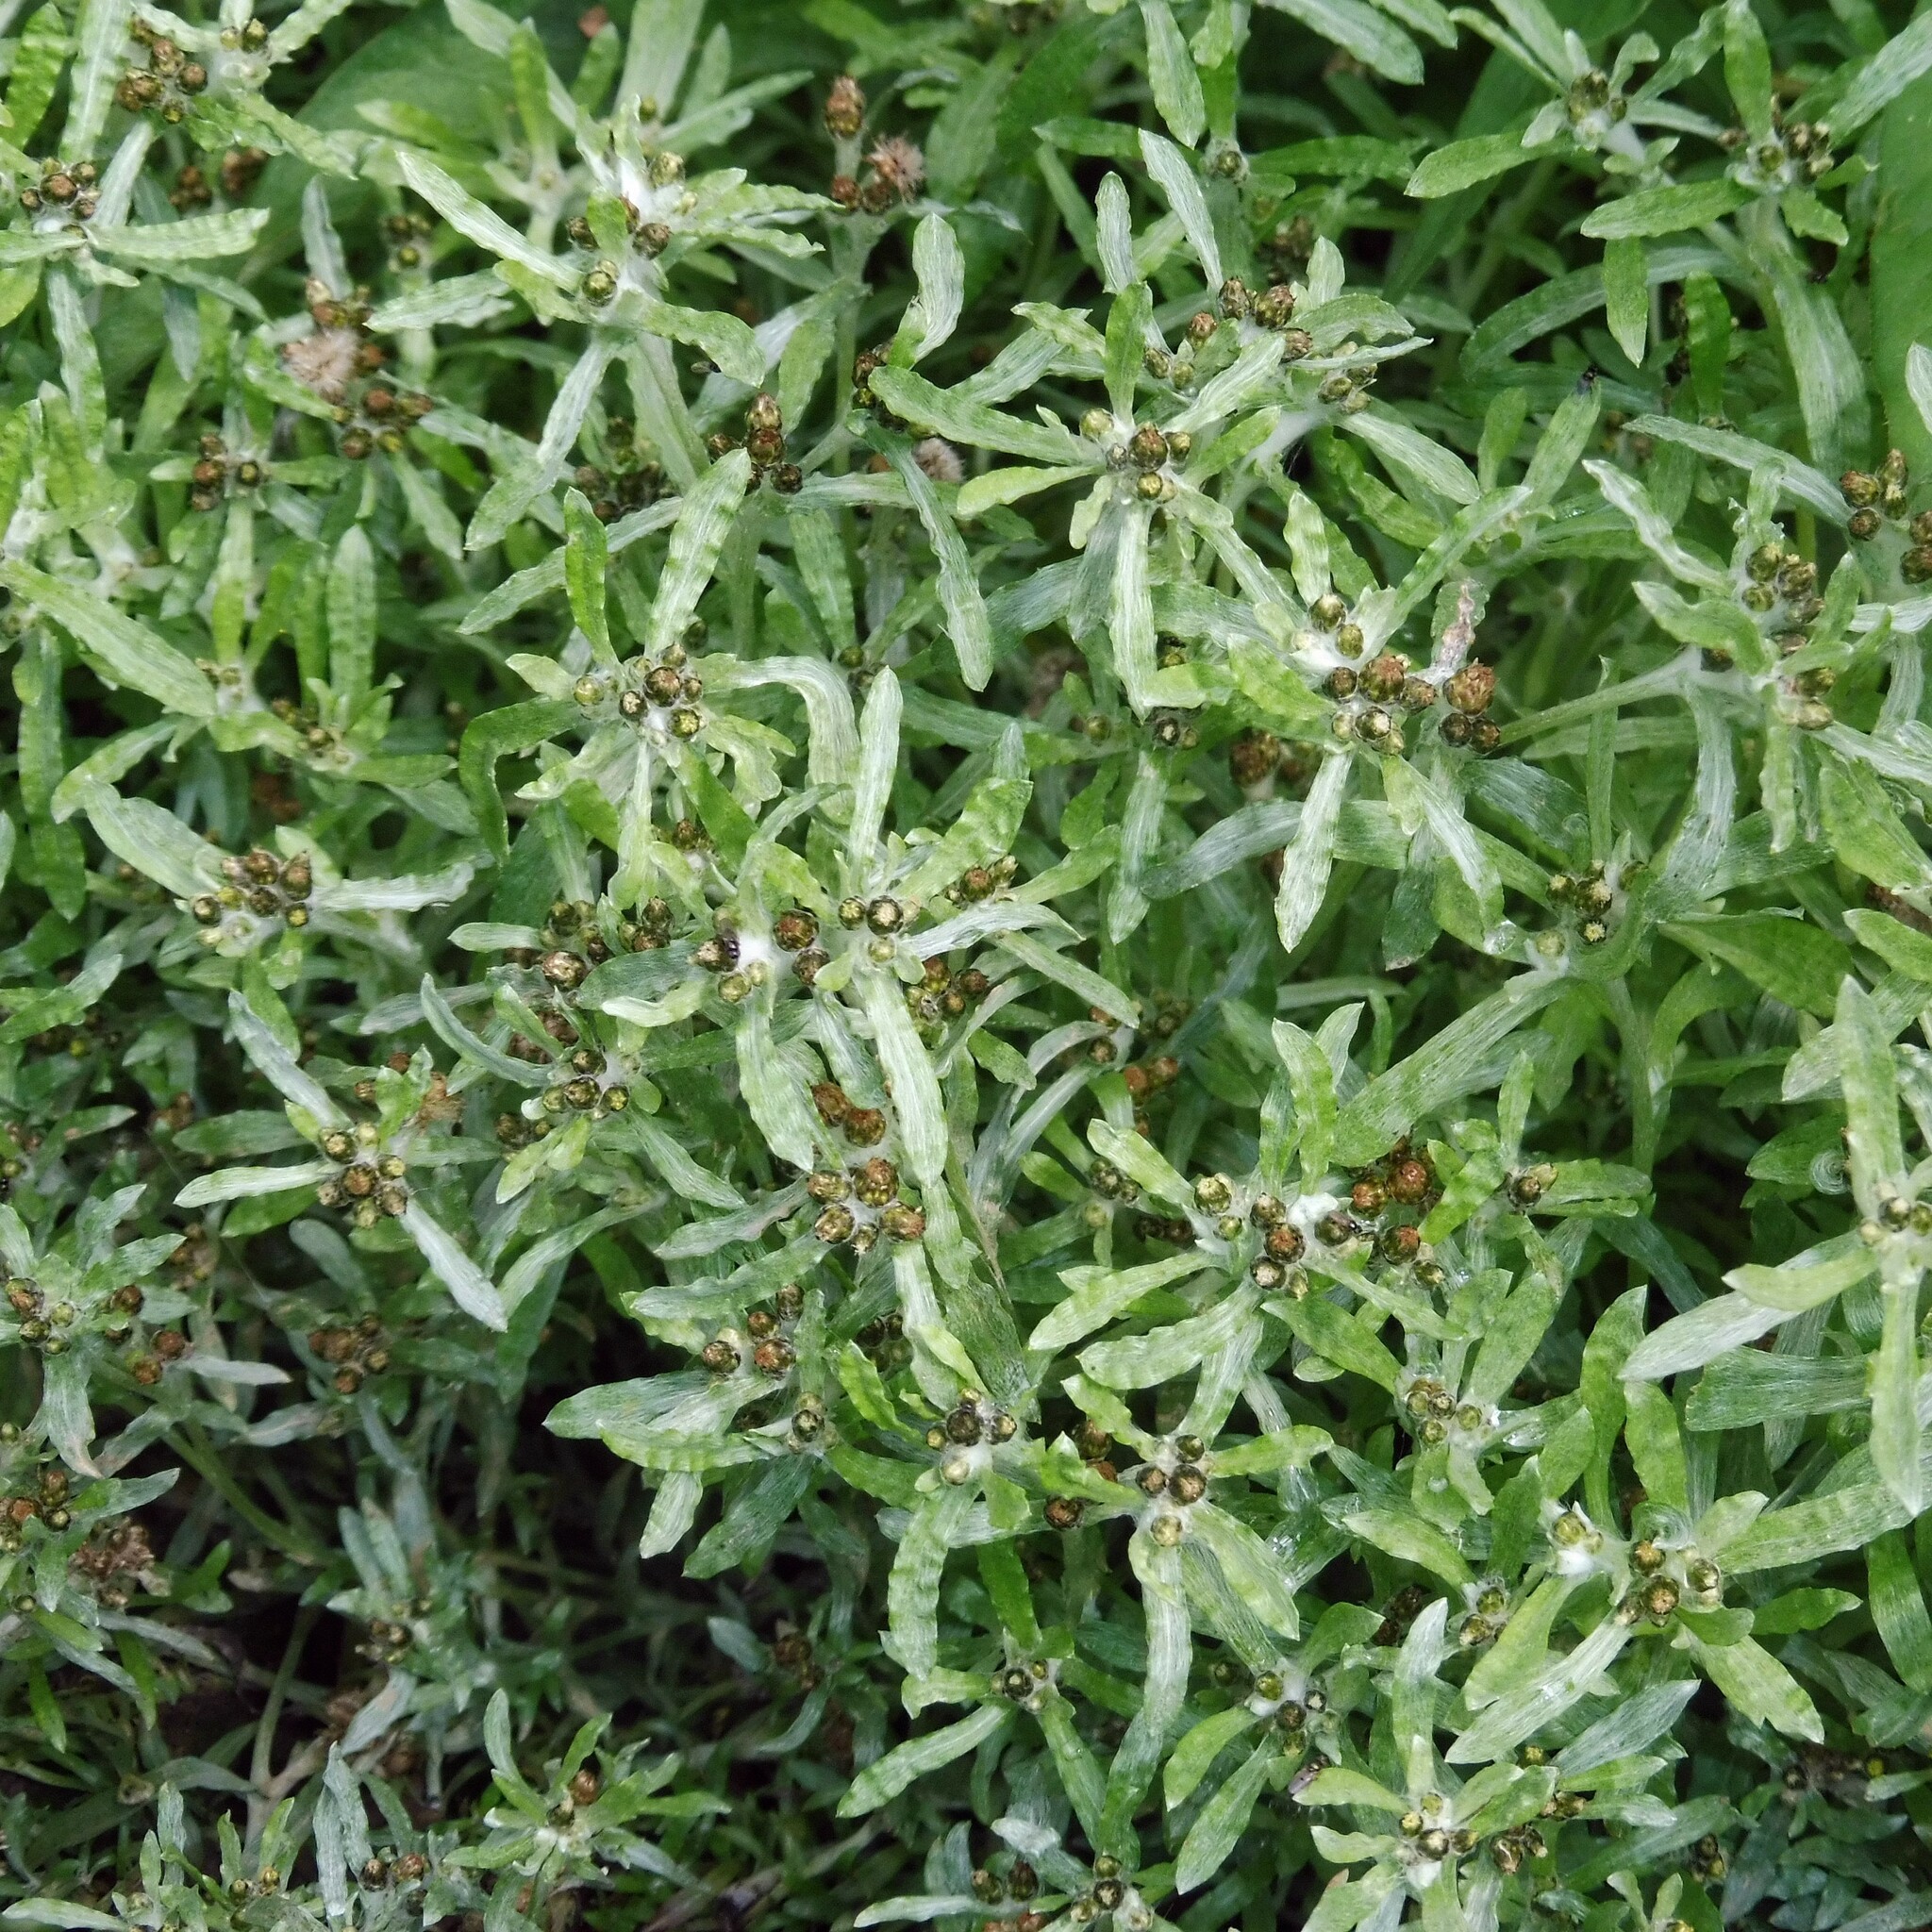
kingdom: Plantae
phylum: Tracheophyta
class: Magnoliopsida
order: Asterales
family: Asteraceae
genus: Gnaphalium
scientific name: Gnaphalium uliginosum
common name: Marsh cudweed
